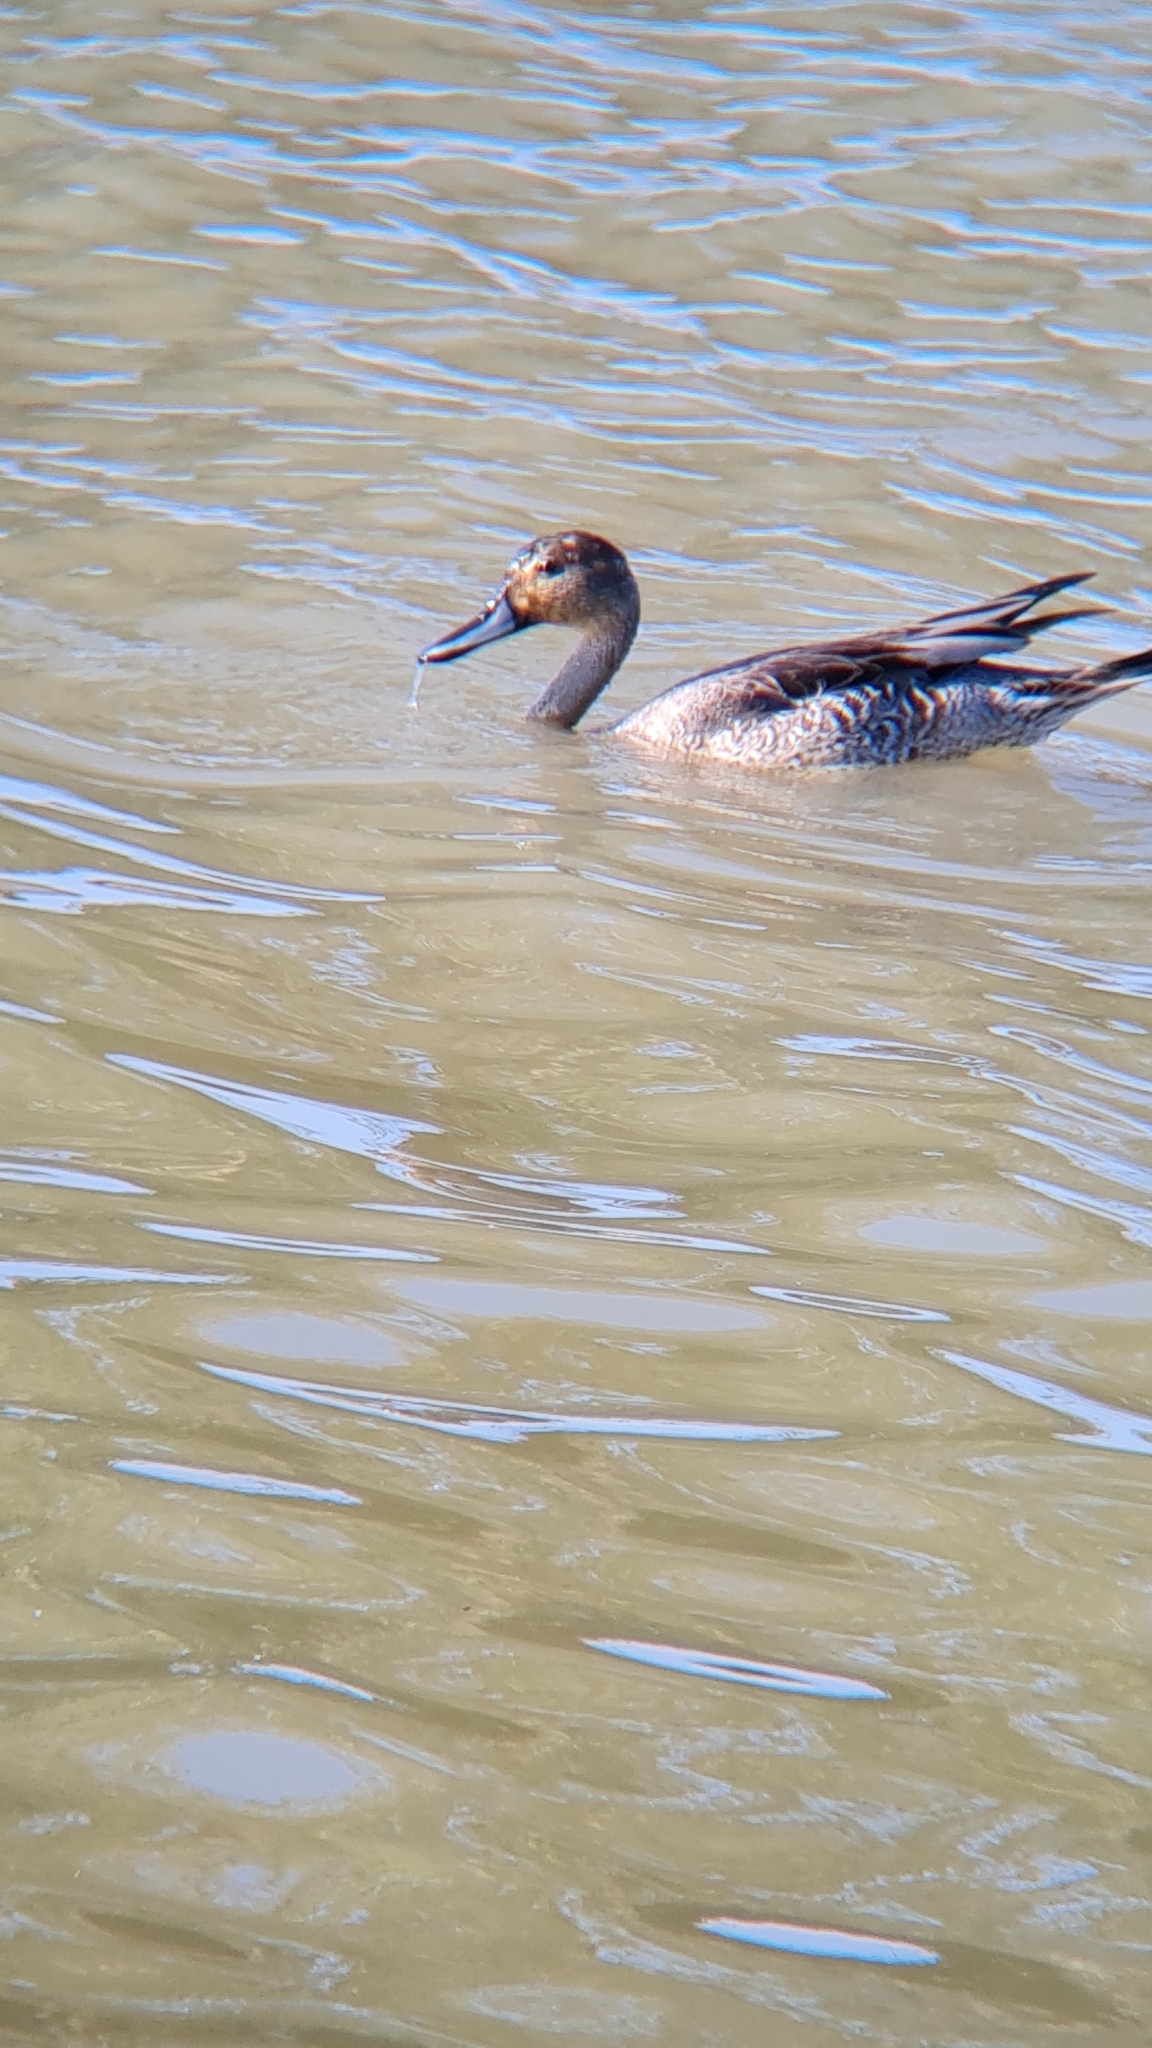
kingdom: Animalia
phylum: Chordata
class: Aves
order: Anseriformes
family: Anatidae
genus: Anas
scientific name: Anas acuta
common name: Northern pintail
